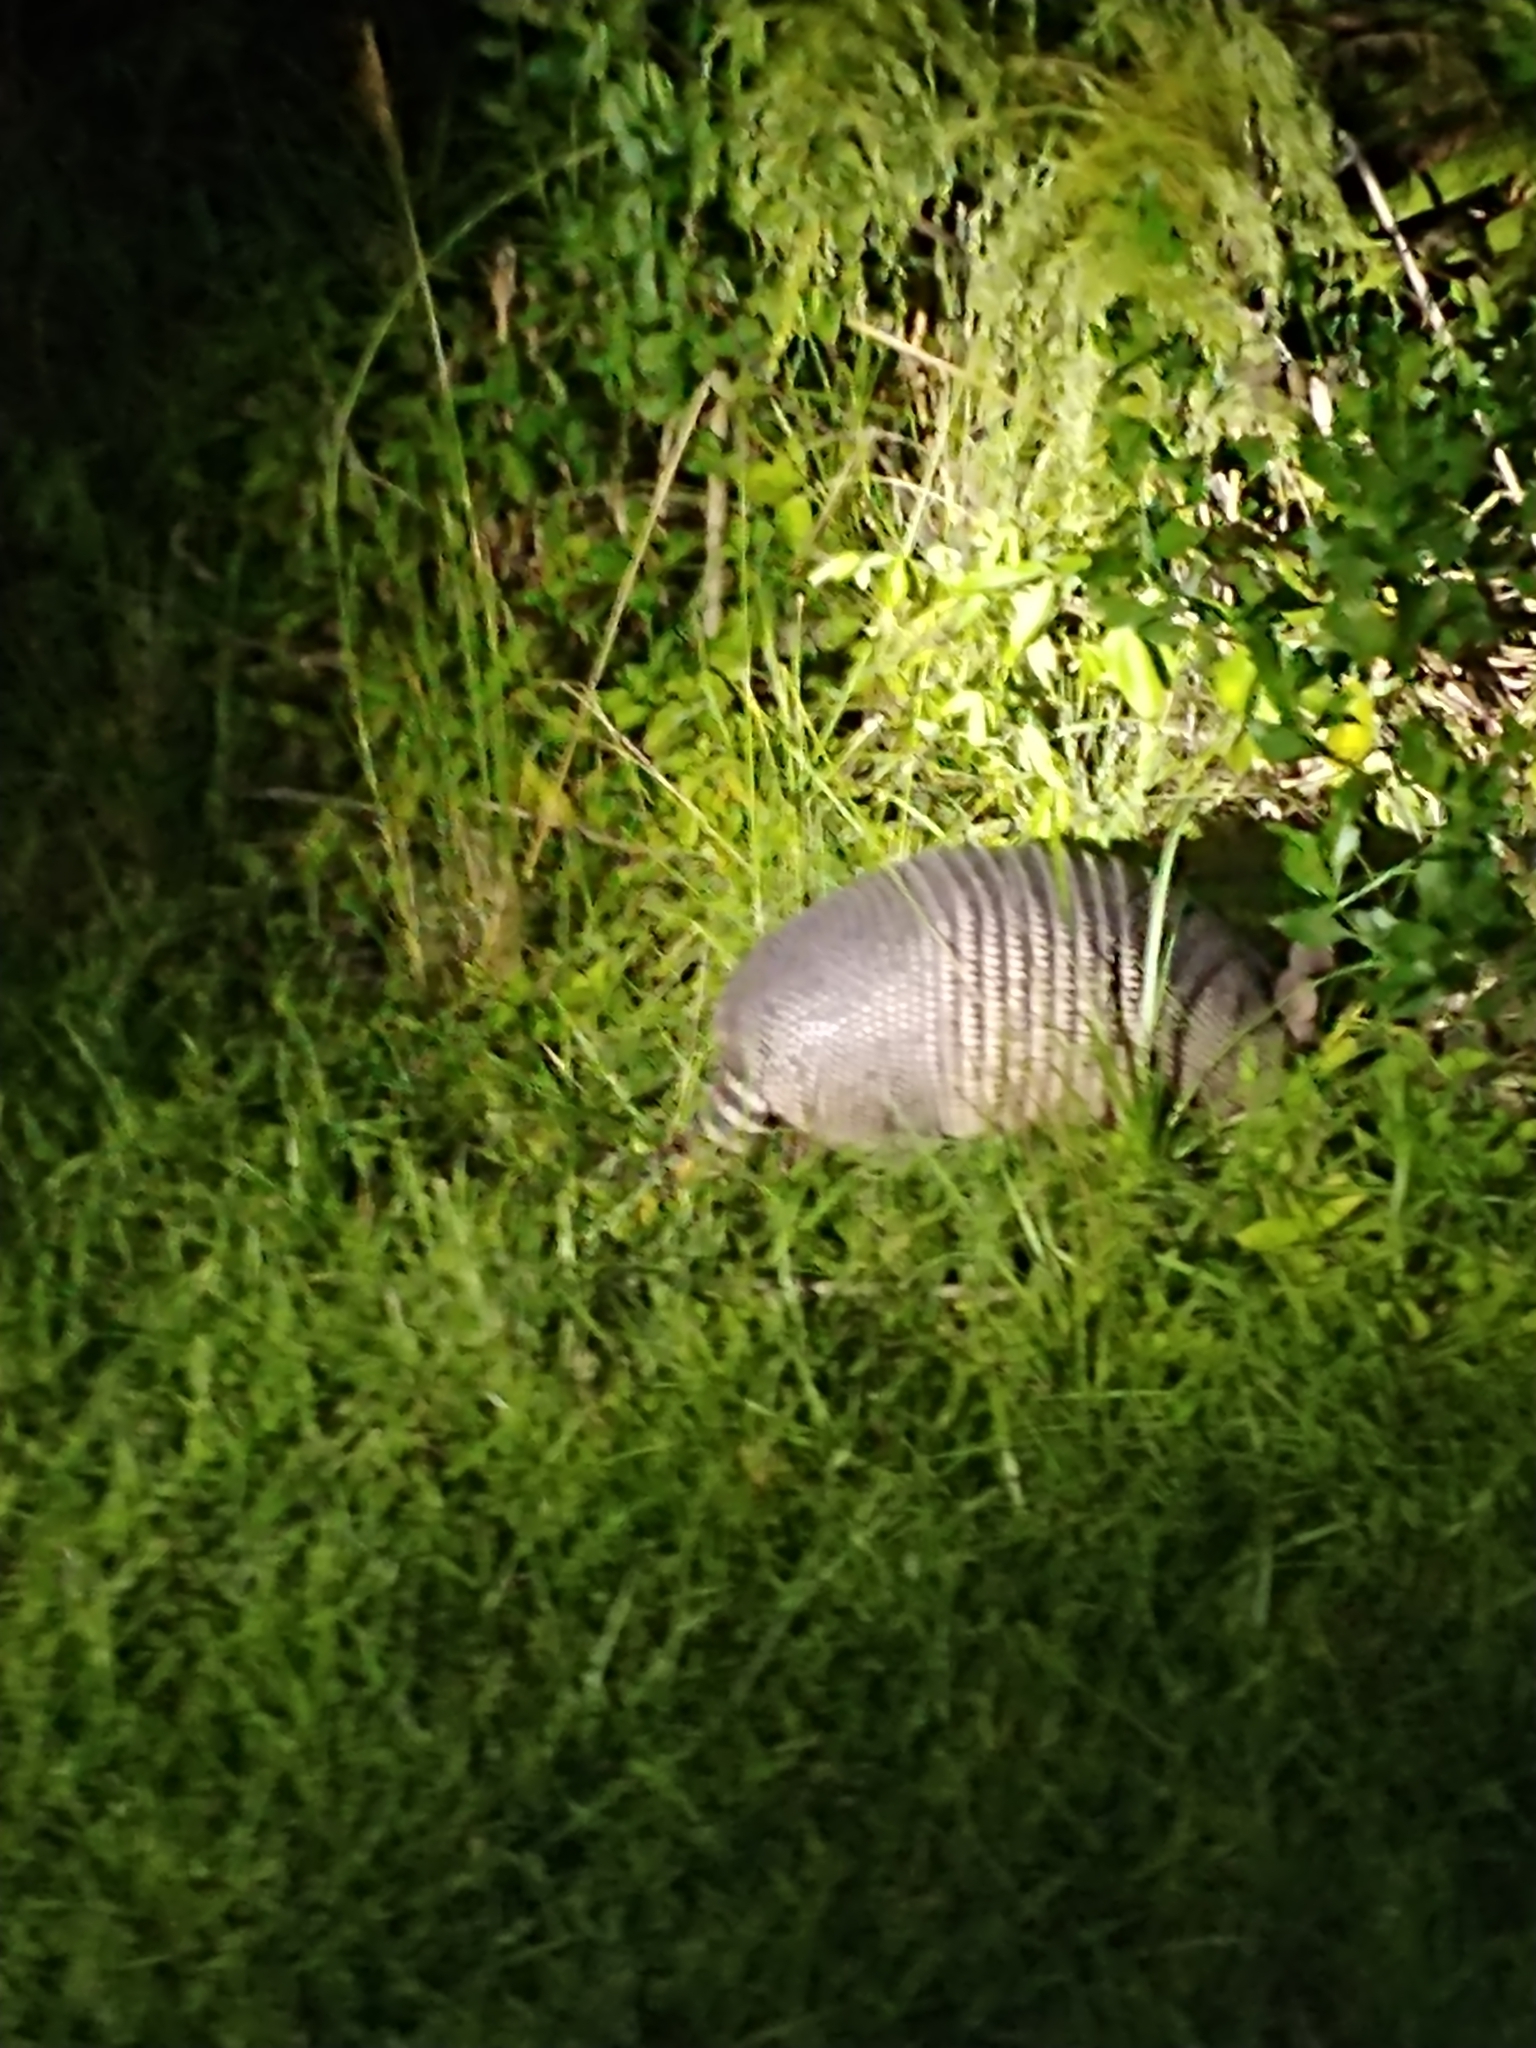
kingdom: Animalia
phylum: Chordata
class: Mammalia
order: Cingulata
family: Dasypodidae
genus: Dasypus
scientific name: Dasypus novemcinctus
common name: Nine-banded armadillo
